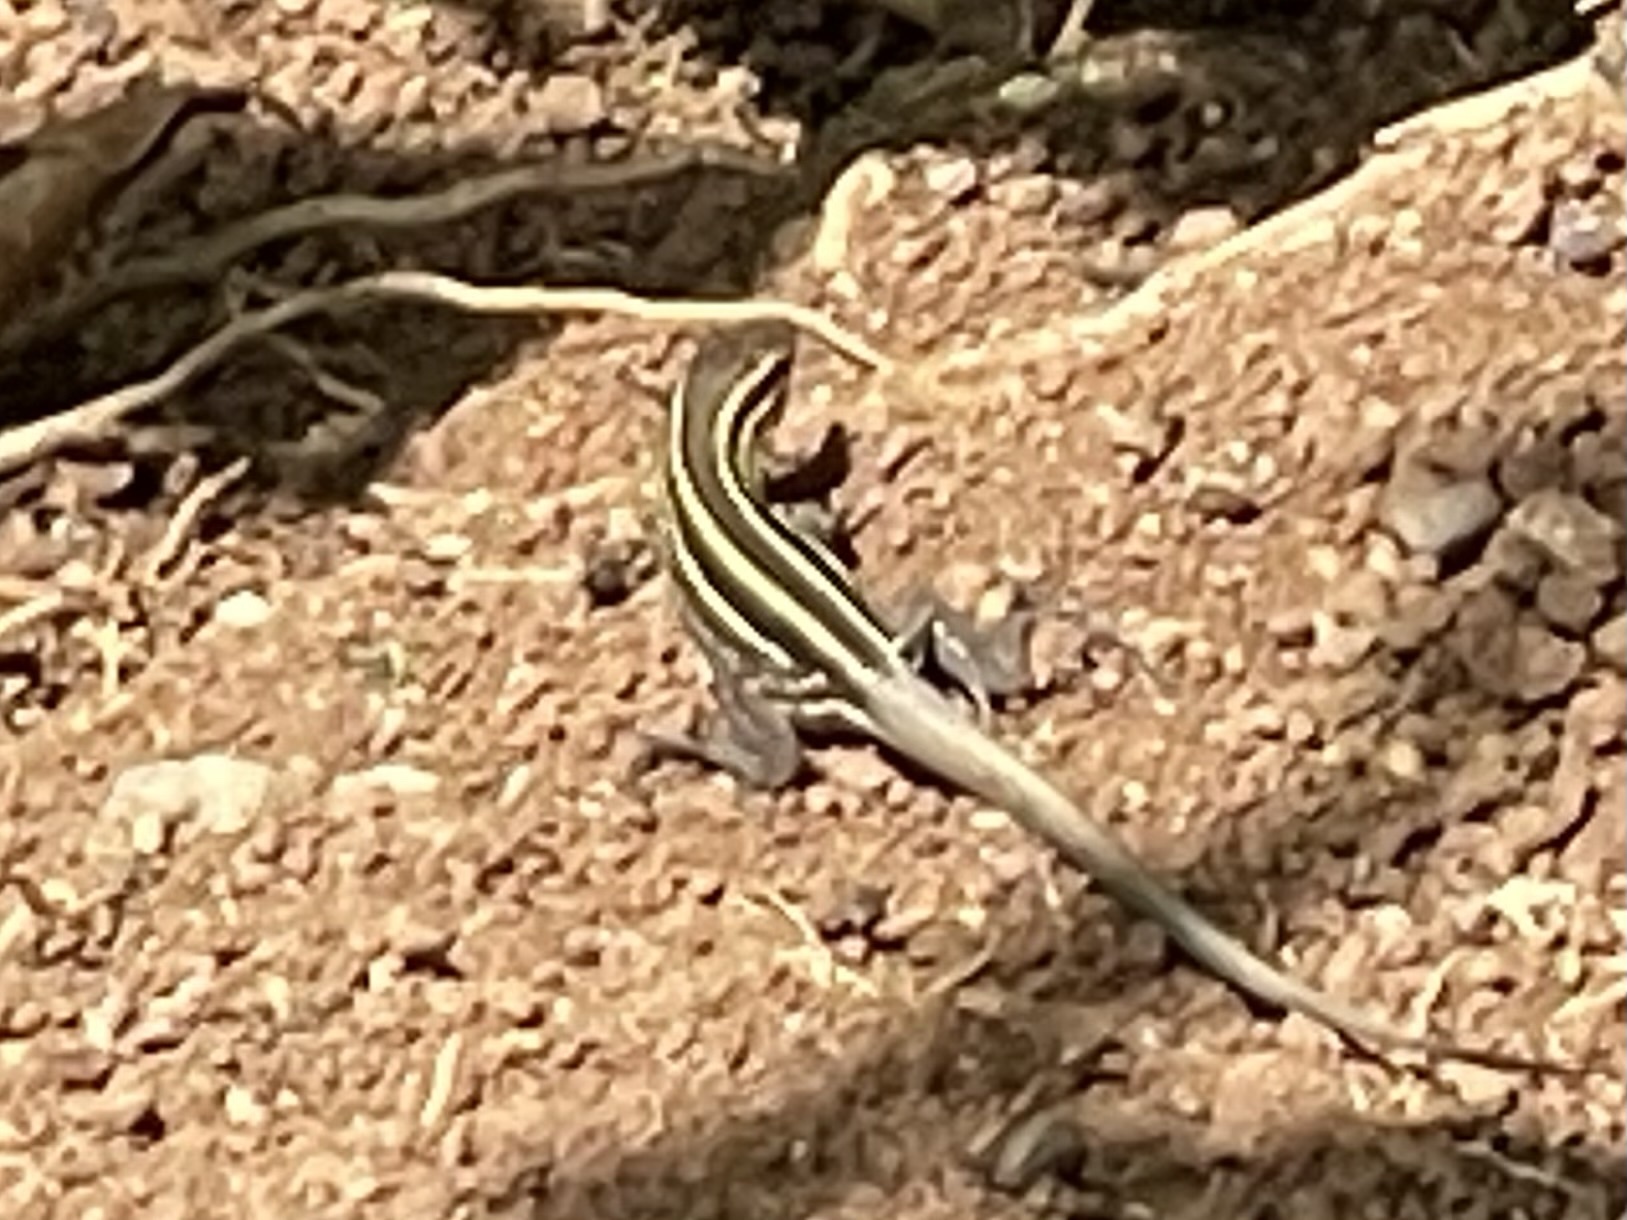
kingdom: Animalia
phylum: Chordata
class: Squamata
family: Teiidae
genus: Holcosus
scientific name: Holcosus quadrilineatus
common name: Four-lined ameiva
